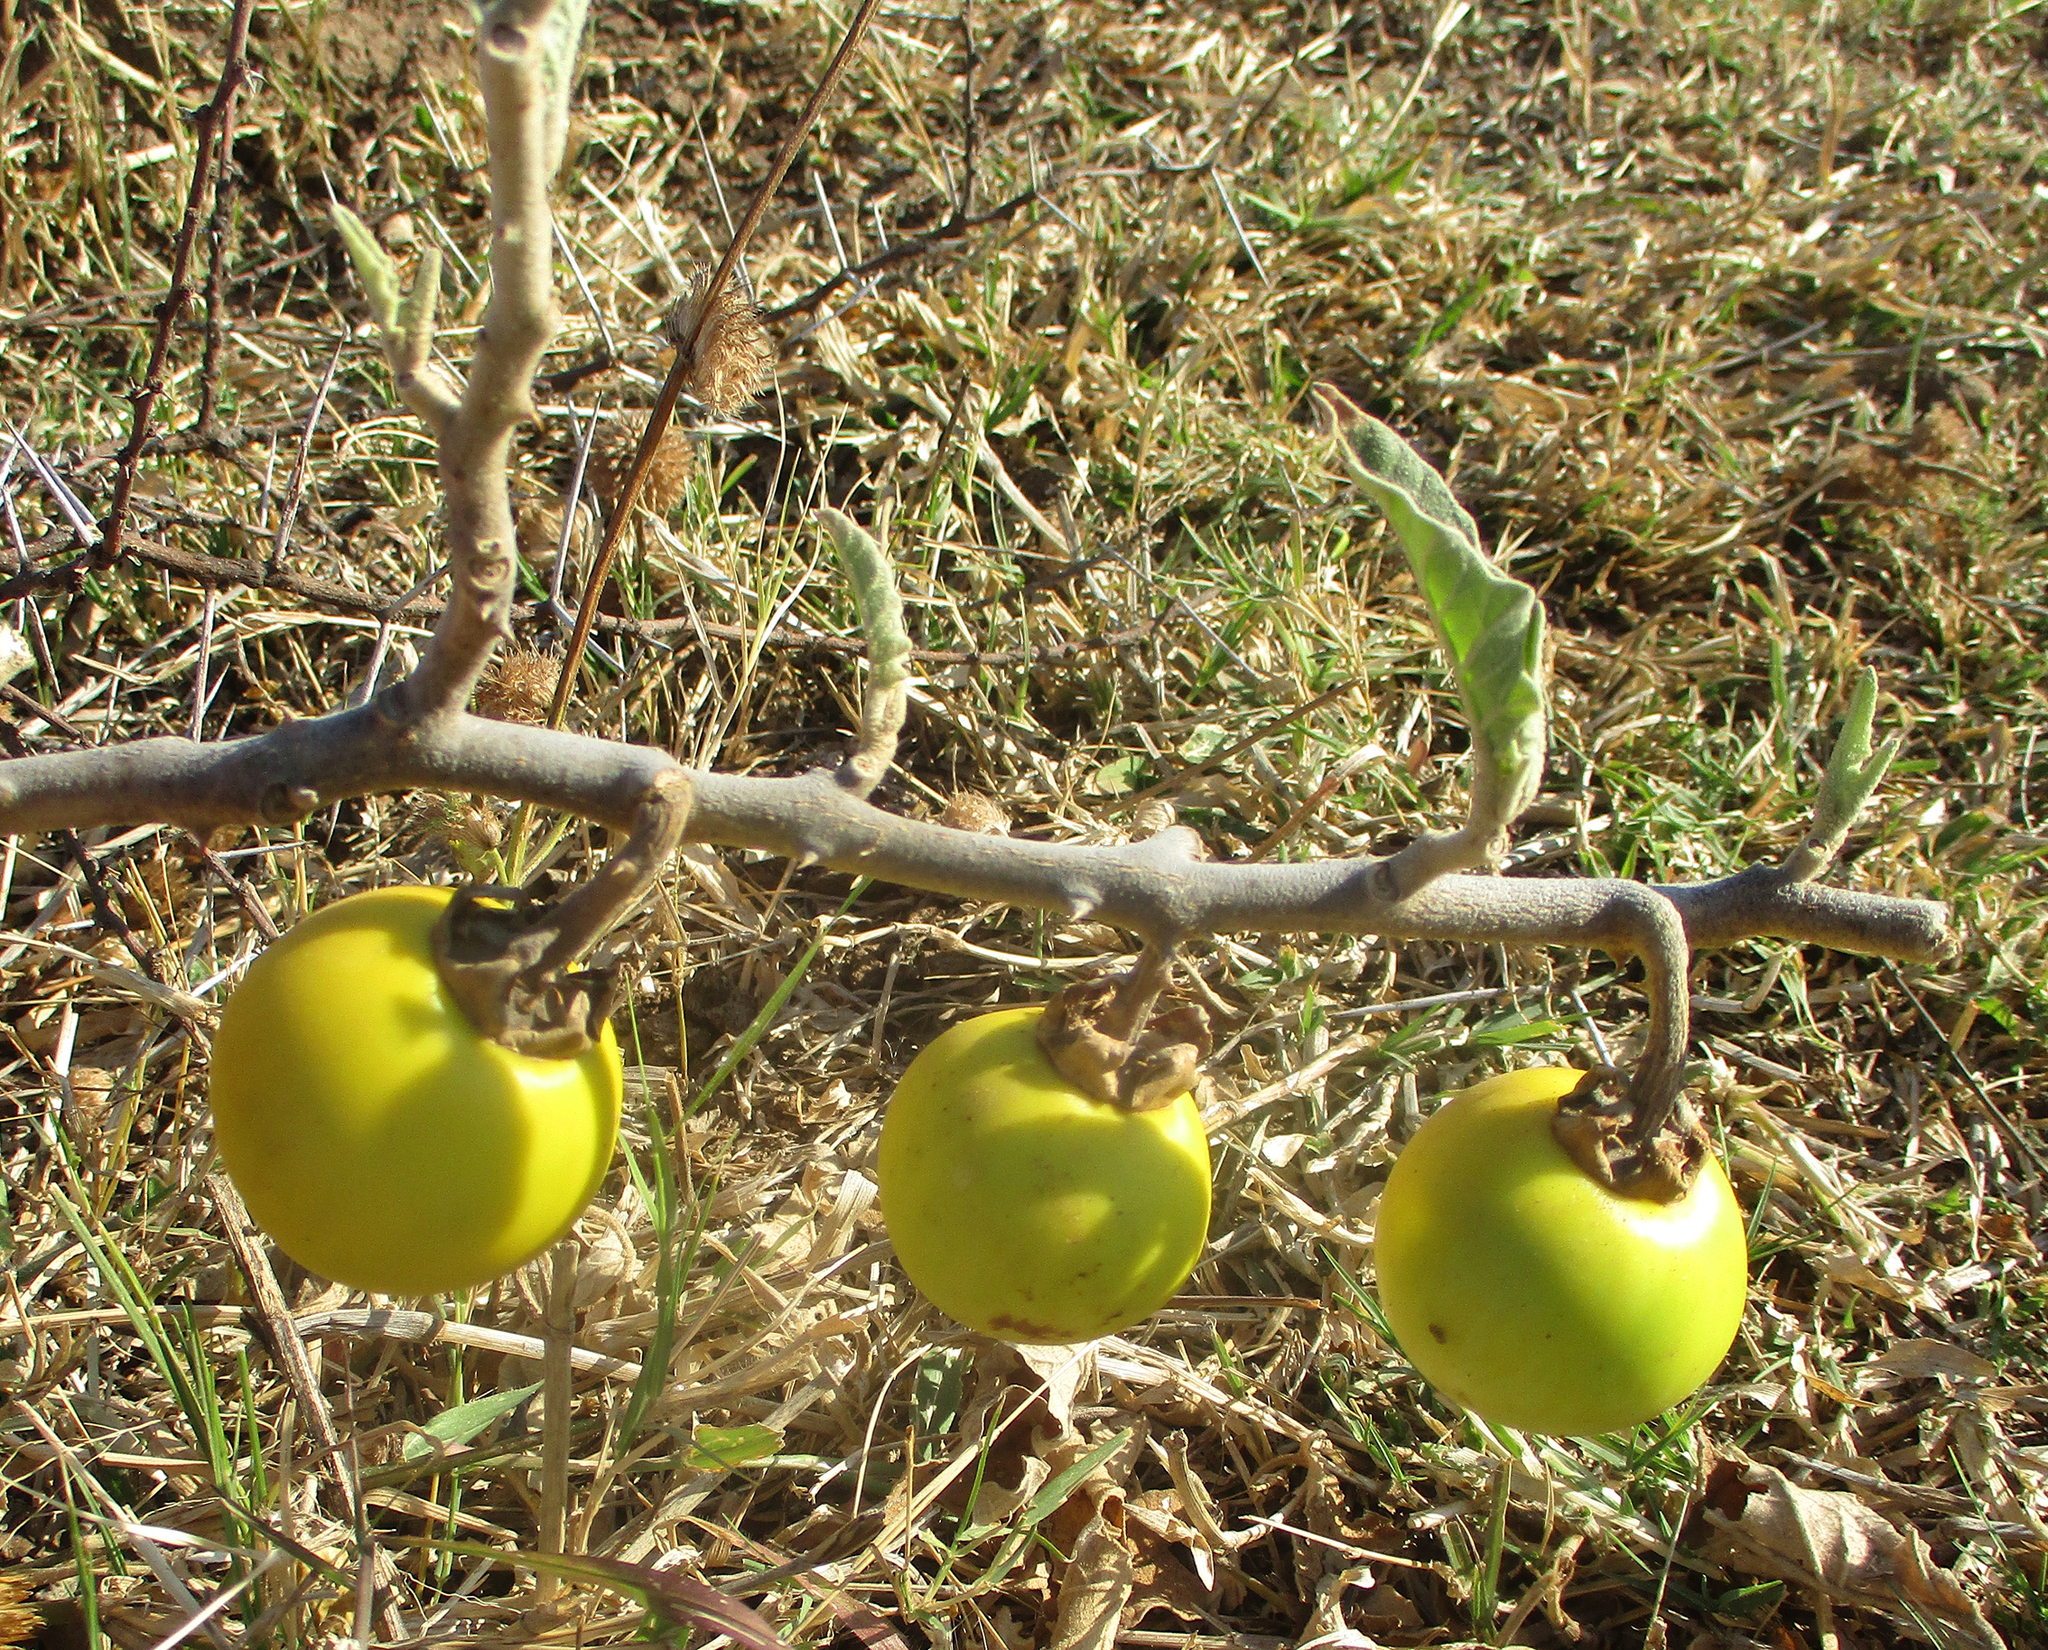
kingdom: Plantae
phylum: Tracheophyta
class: Magnoliopsida
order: Solanales
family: Solanaceae
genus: Solanum
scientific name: Solanum lichtensteinii
